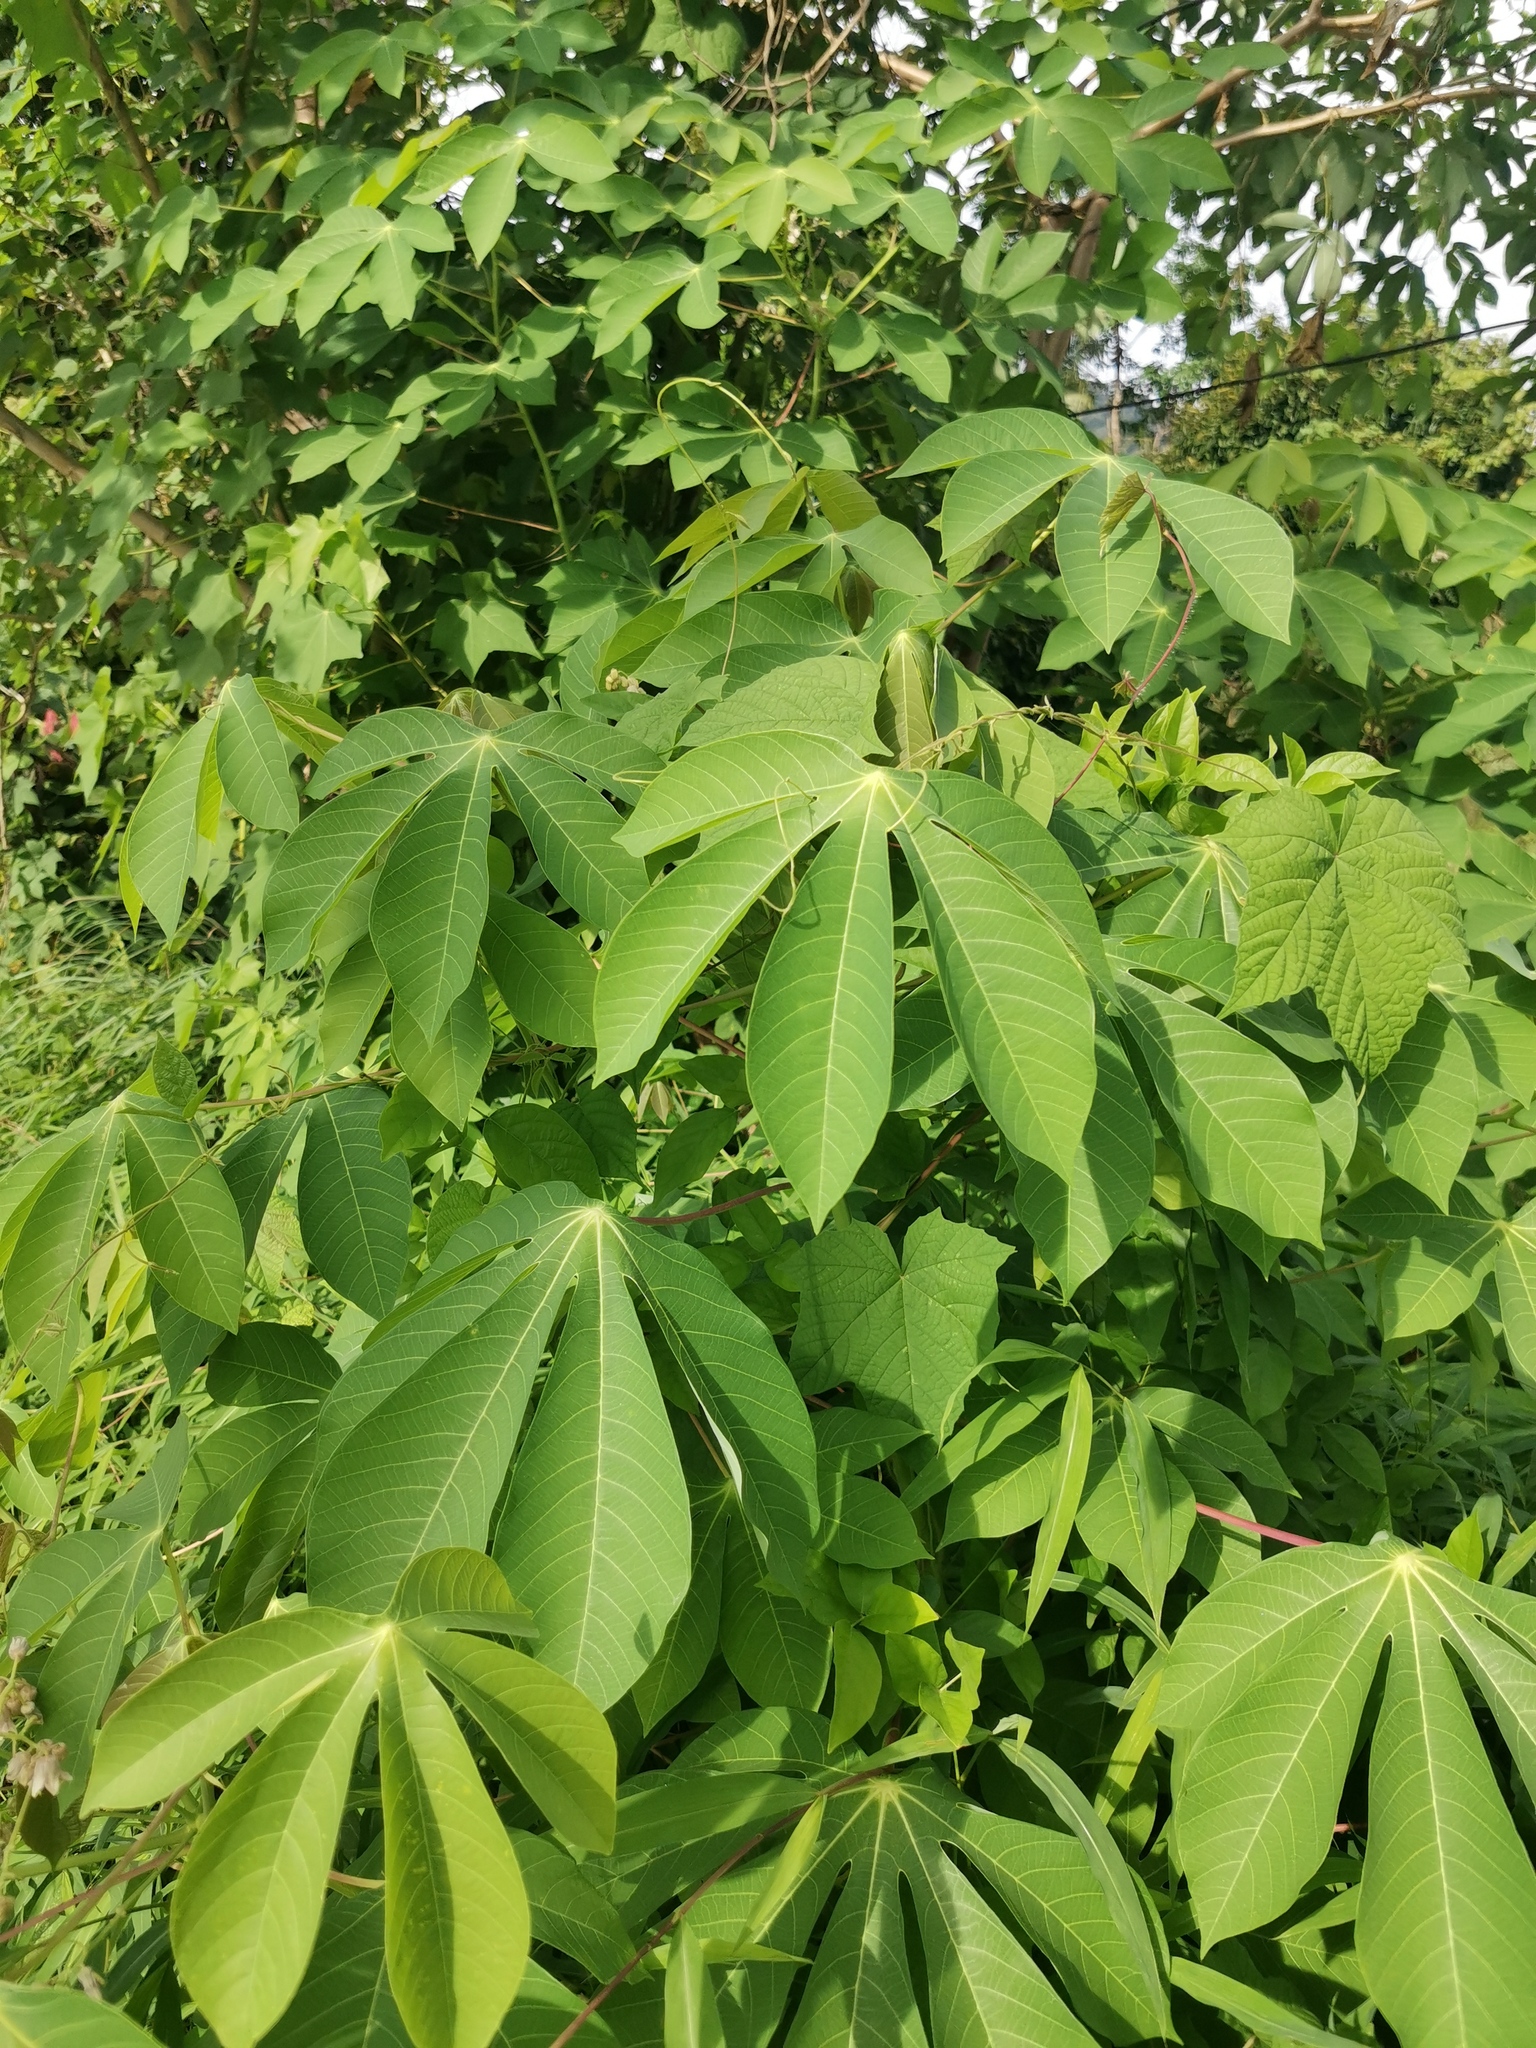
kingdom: Plantae
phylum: Tracheophyta
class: Magnoliopsida
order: Malpighiales
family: Euphorbiaceae
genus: Manihot
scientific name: Manihot esculenta
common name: Cassava
